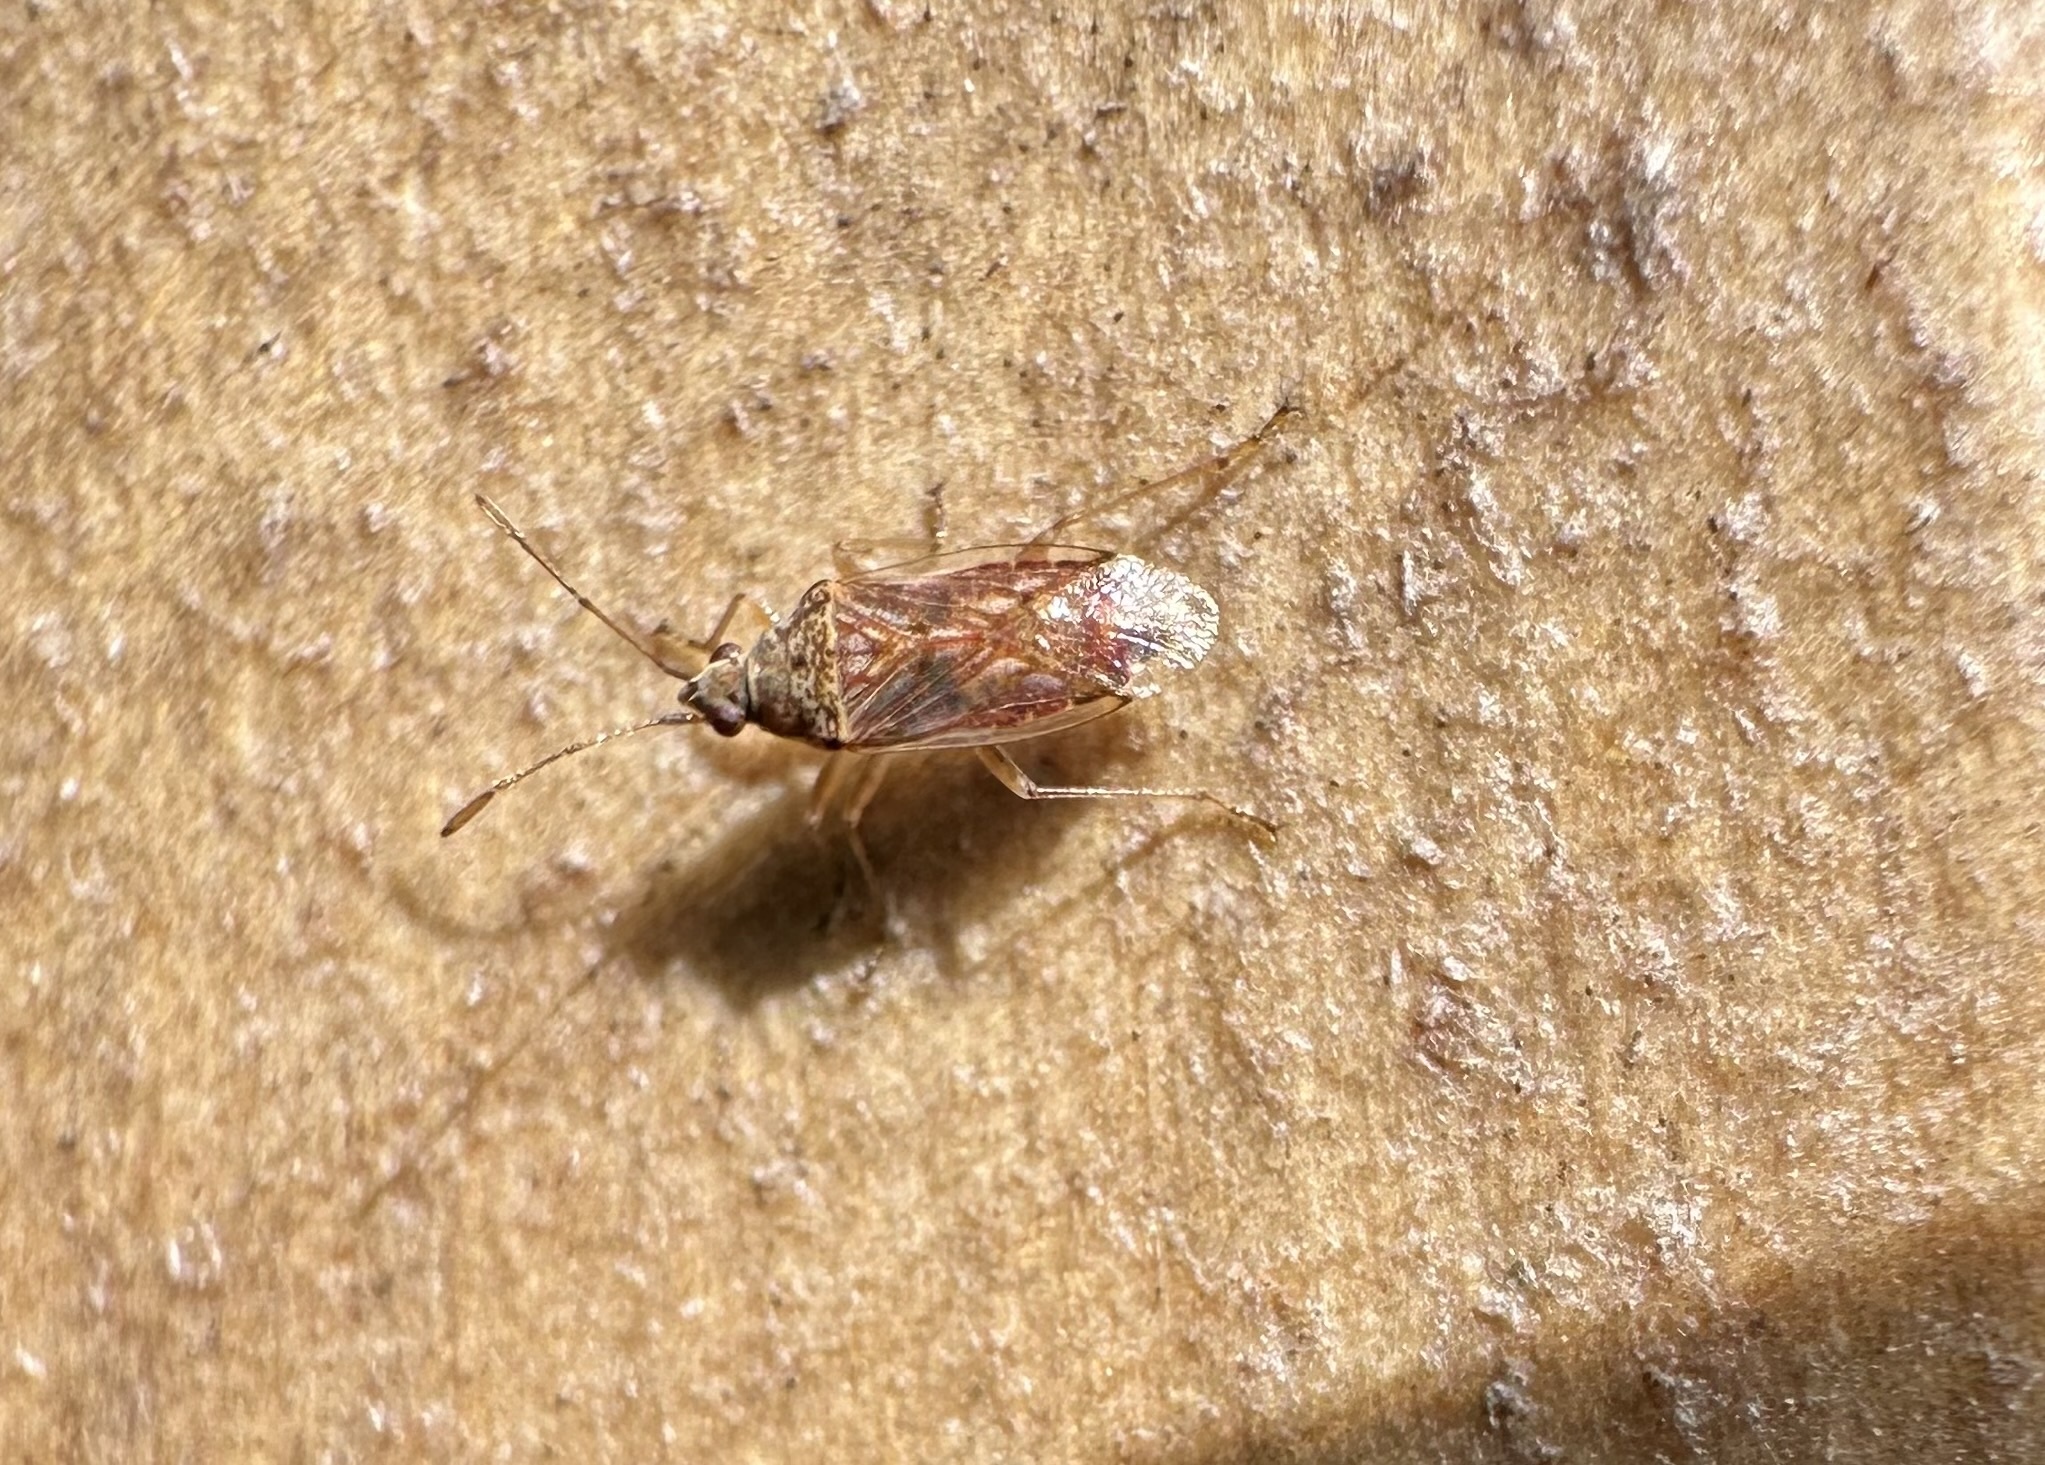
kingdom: Animalia
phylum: Arthropoda
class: Insecta
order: Hemiptera
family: Lygaeidae
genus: Syzygitis
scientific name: Syzygitis poecilus
